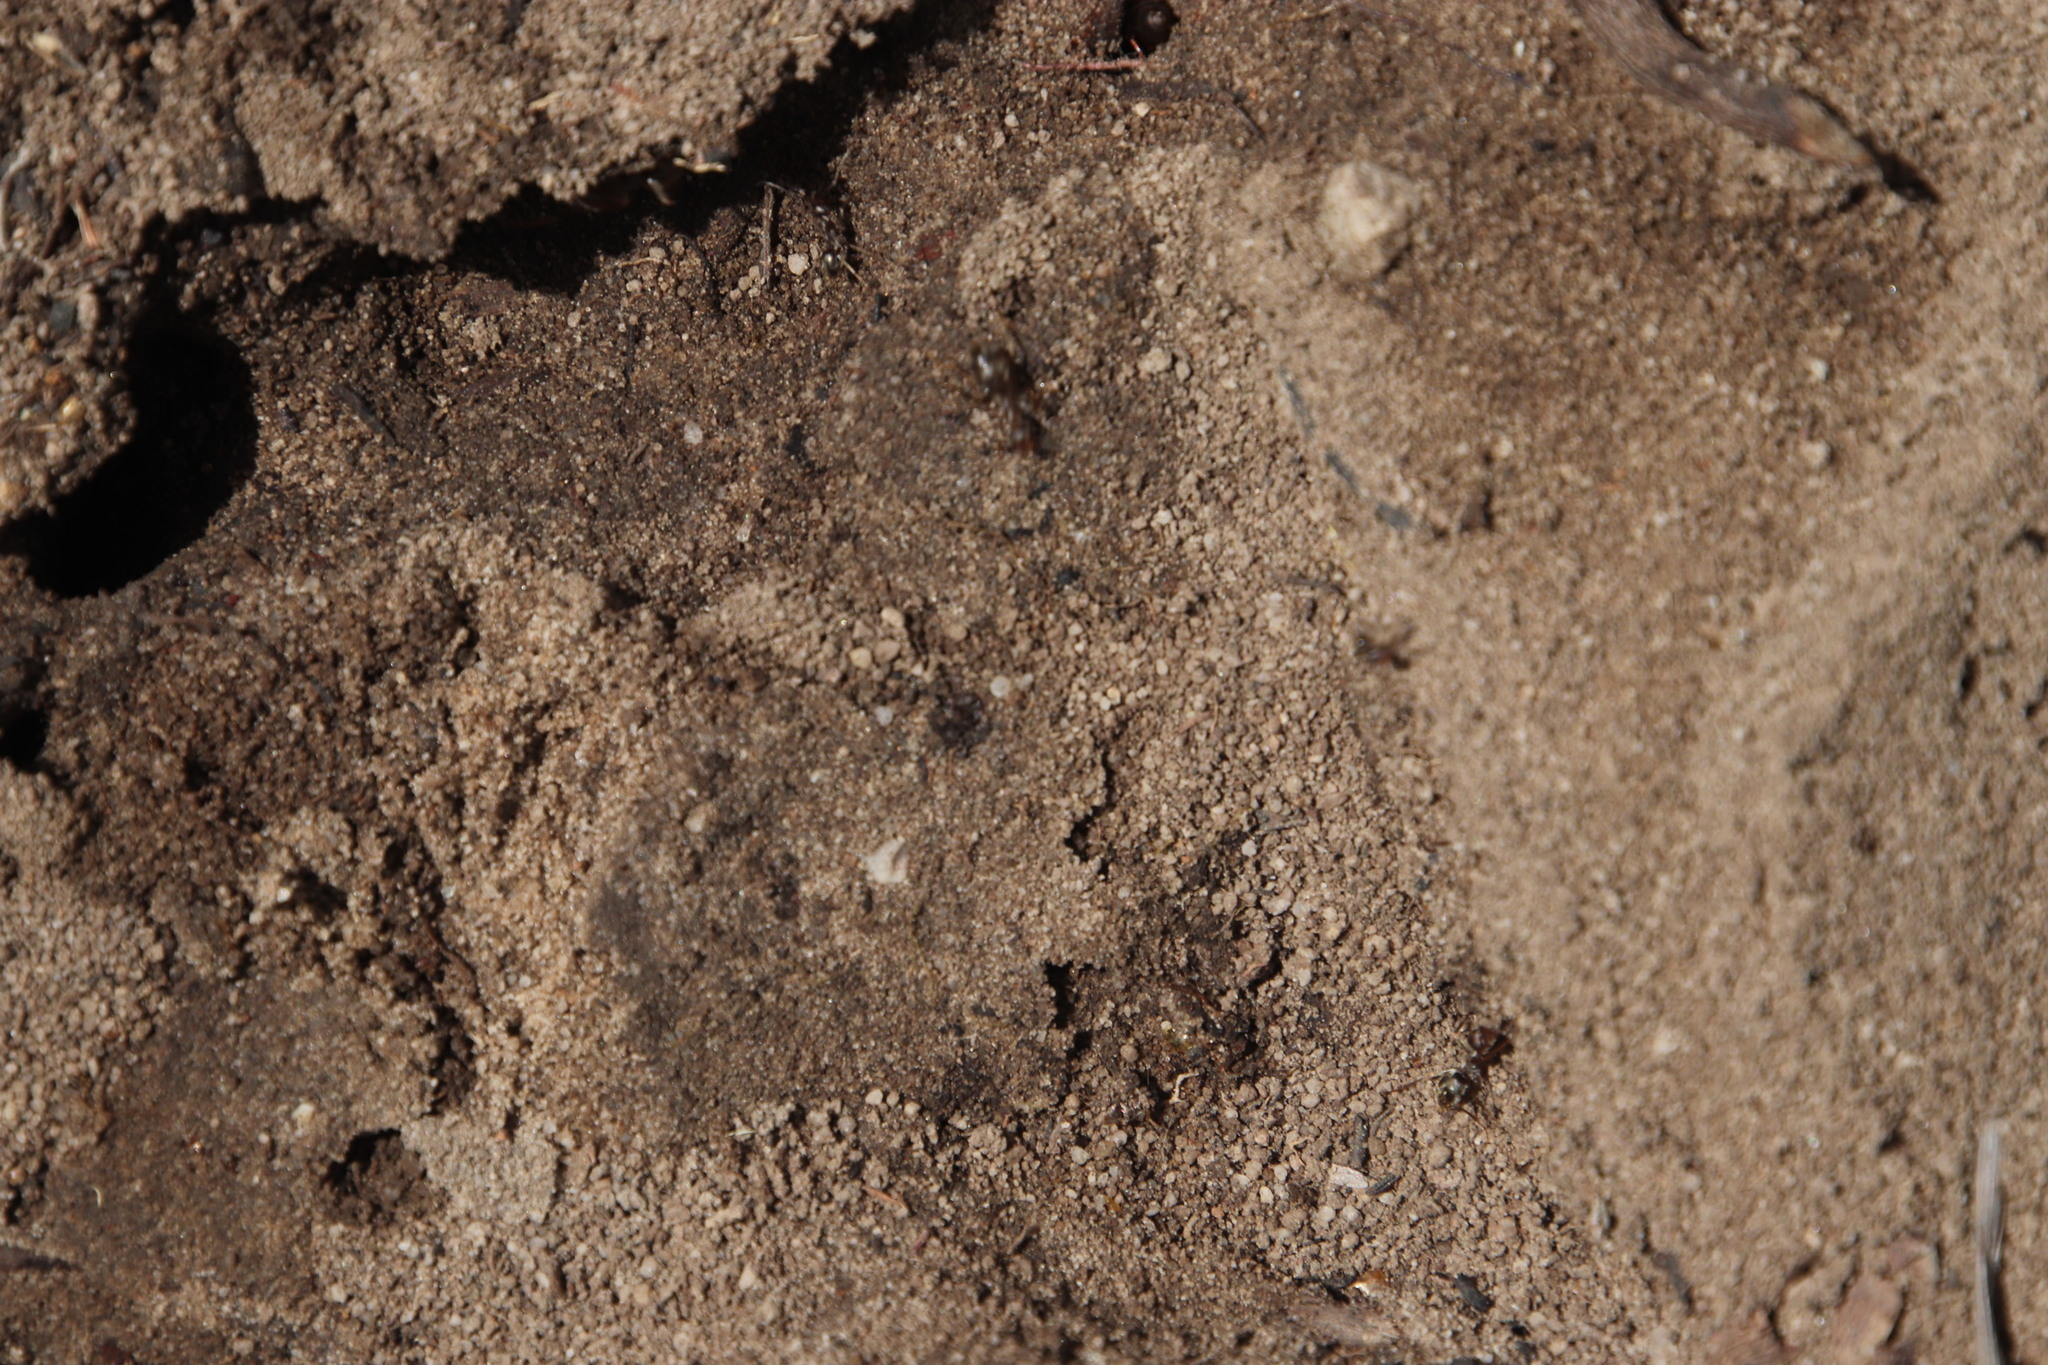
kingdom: Animalia
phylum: Arthropoda
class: Insecta
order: Hymenoptera
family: Formicidae
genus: Anoplolepis
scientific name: Anoplolepis steingroeveri
